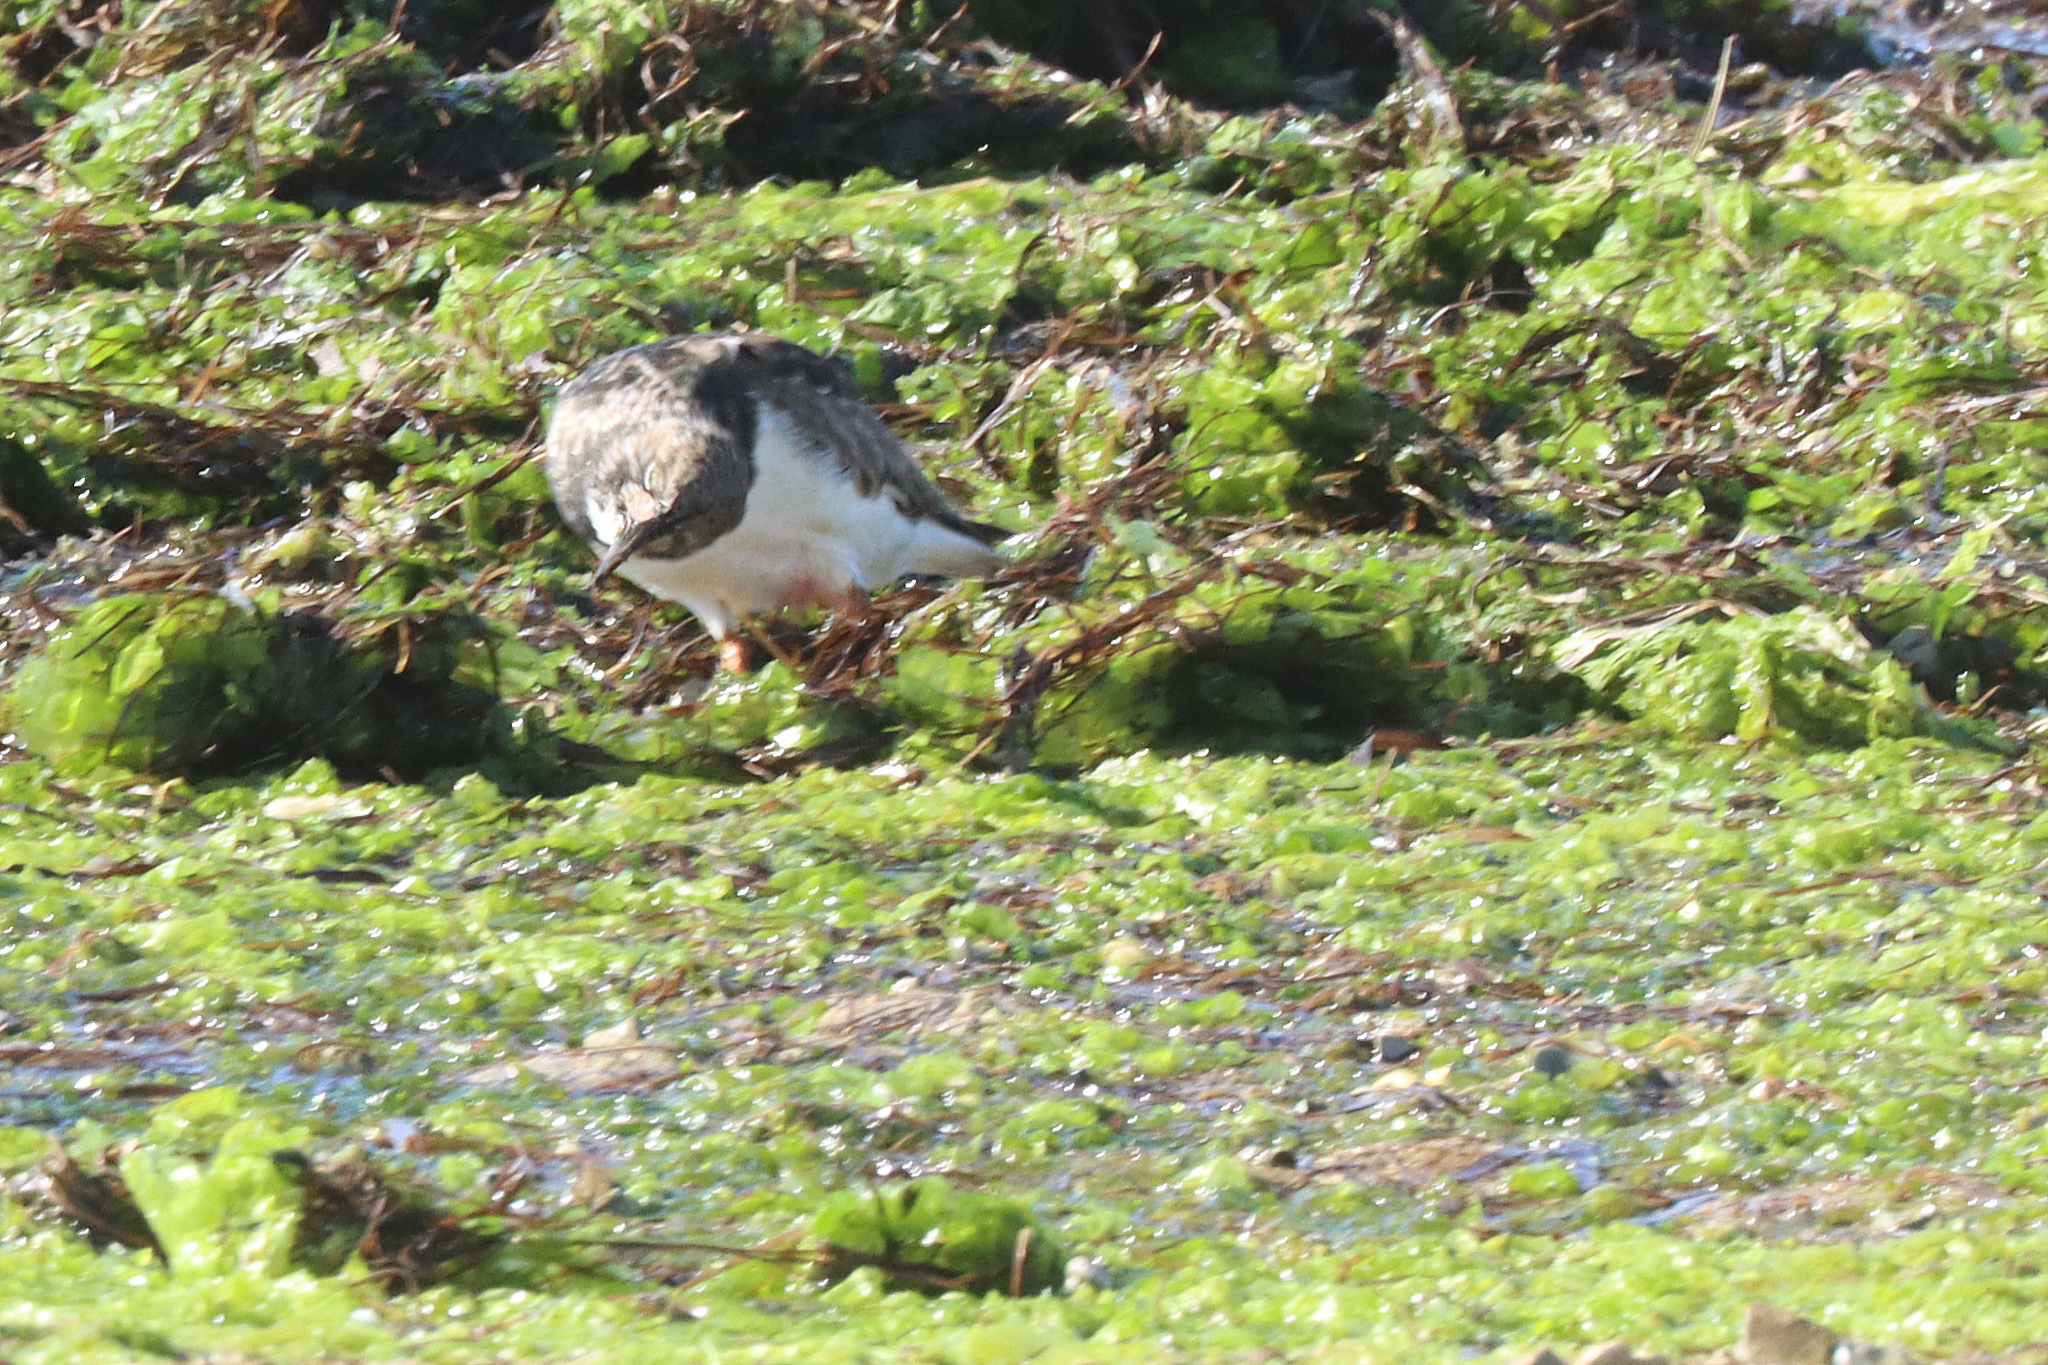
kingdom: Animalia
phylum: Chordata
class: Aves
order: Charadriiformes
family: Scolopacidae
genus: Arenaria
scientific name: Arenaria interpres
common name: Ruddy turnstone
